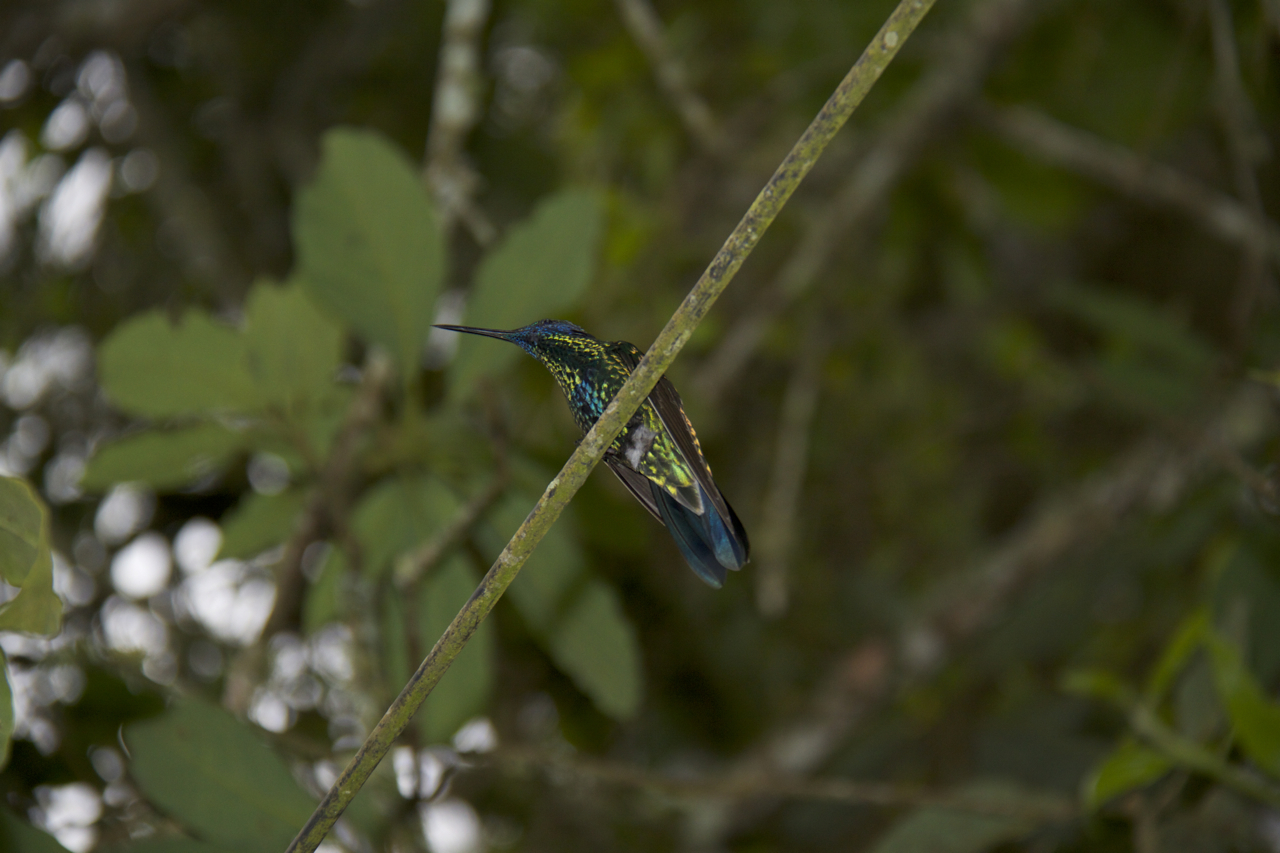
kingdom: Animalia
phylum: Chordata
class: Aves
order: Apodiformes
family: Trochilidae
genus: Colibri
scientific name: Colibri coruscans
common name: Sparkling violetear
